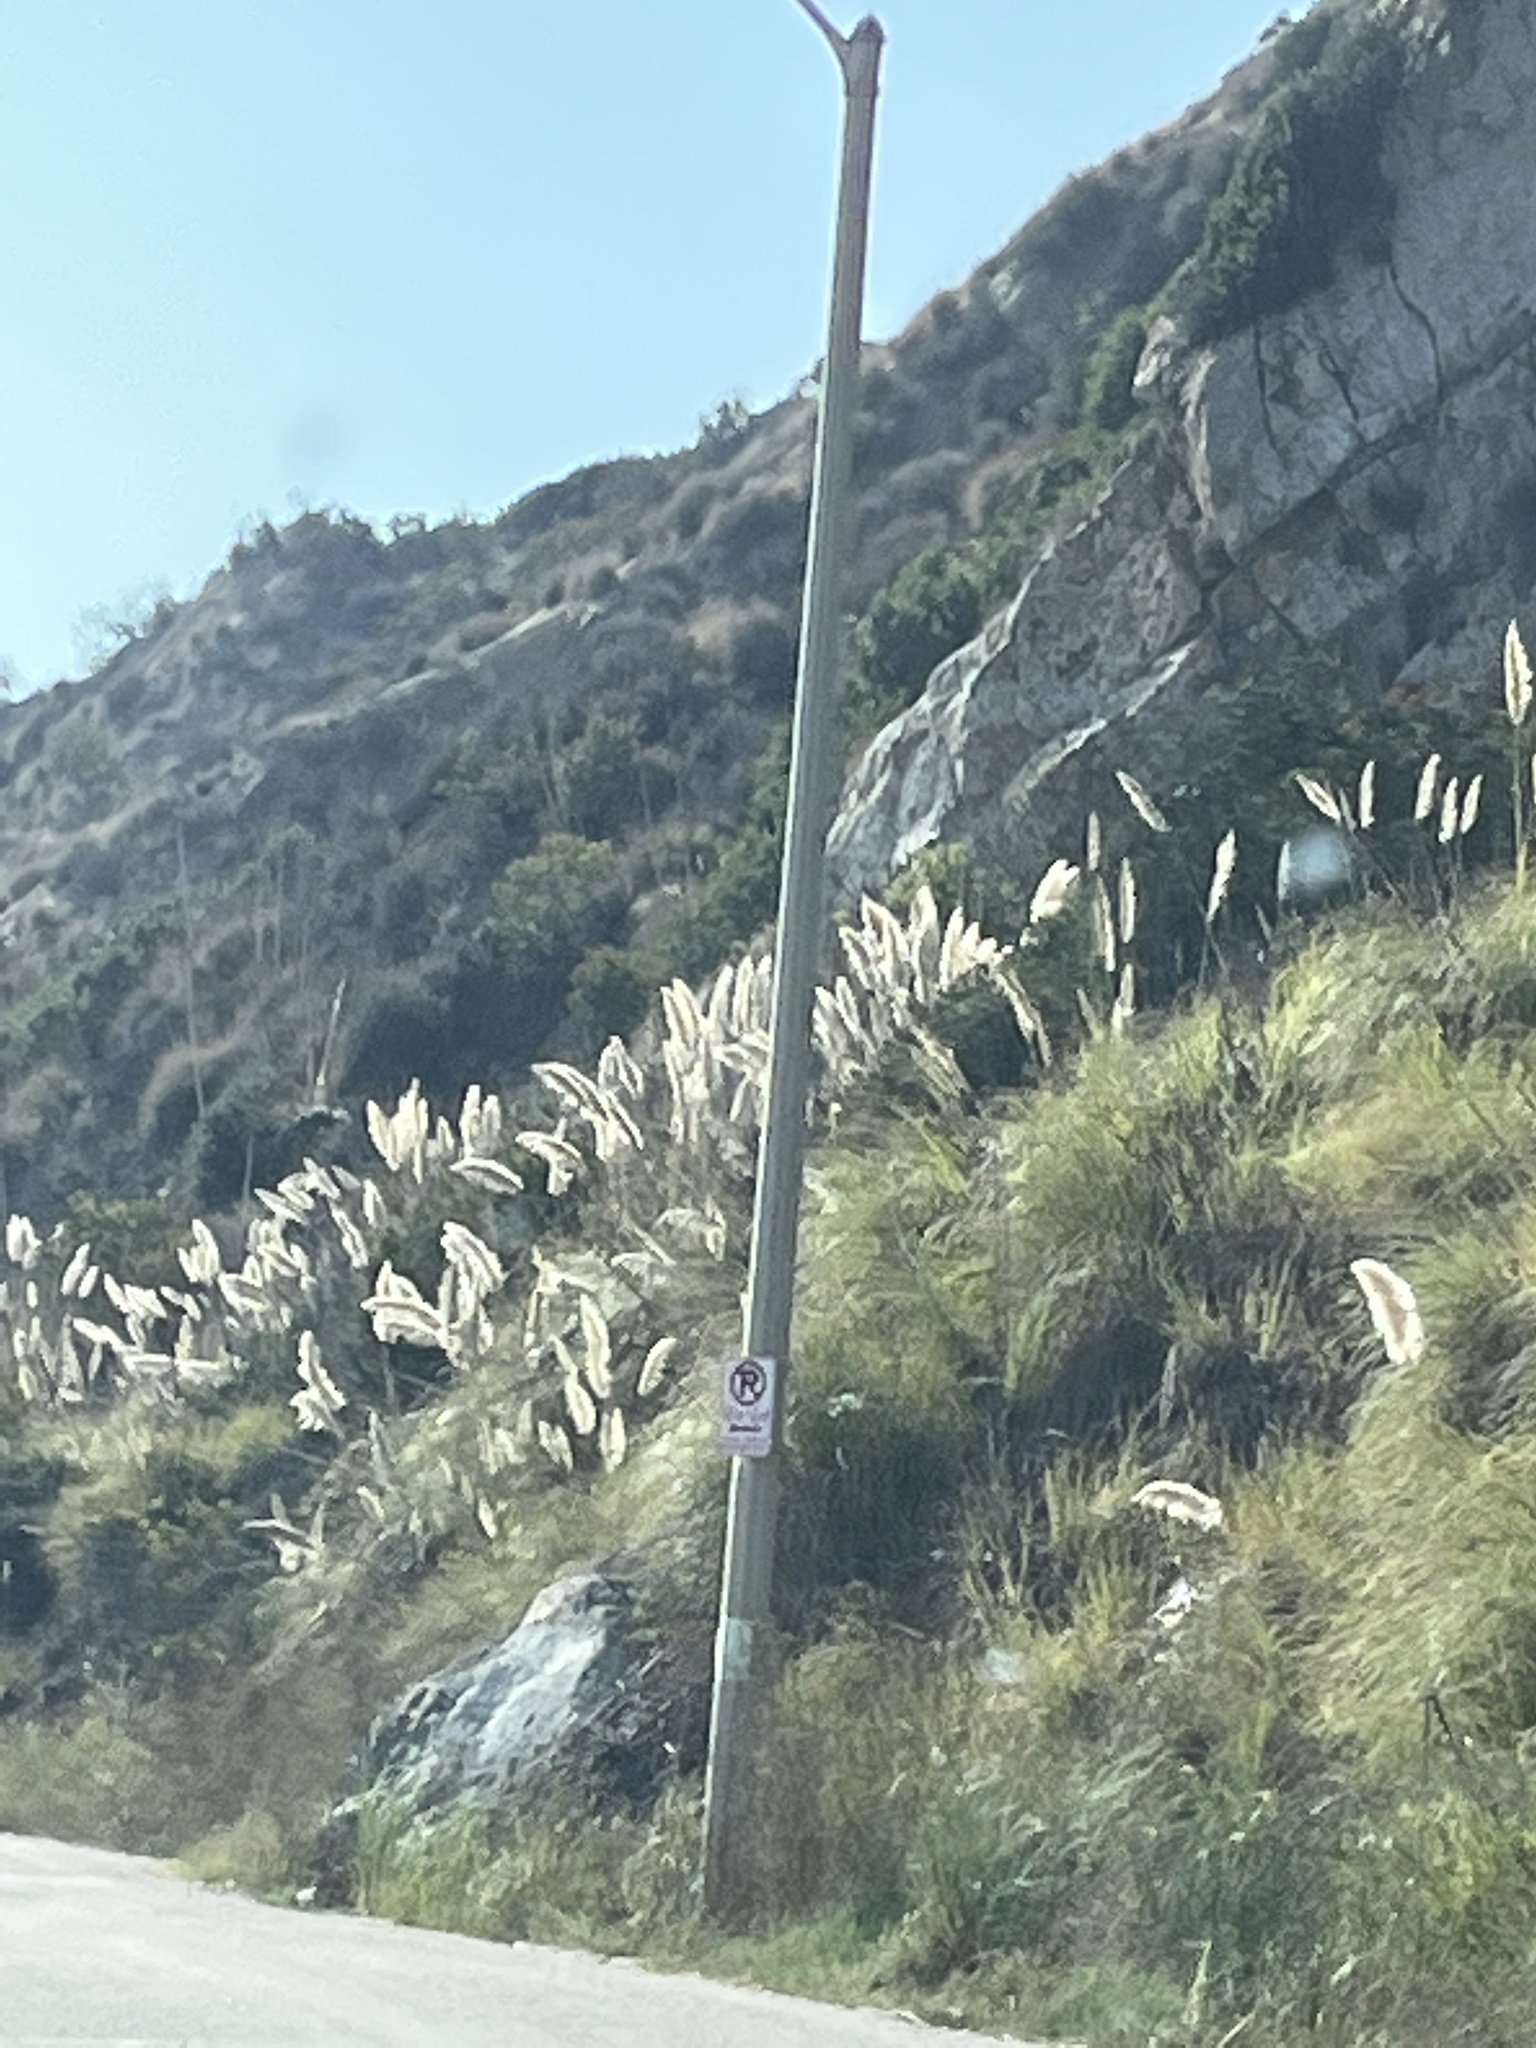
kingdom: Plantae
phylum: Tracheophyta
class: Liliopsida
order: Poales
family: Poaceae
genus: Cortaderia
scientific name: Cortaderia selloana
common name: Uruguayan pampas grass
